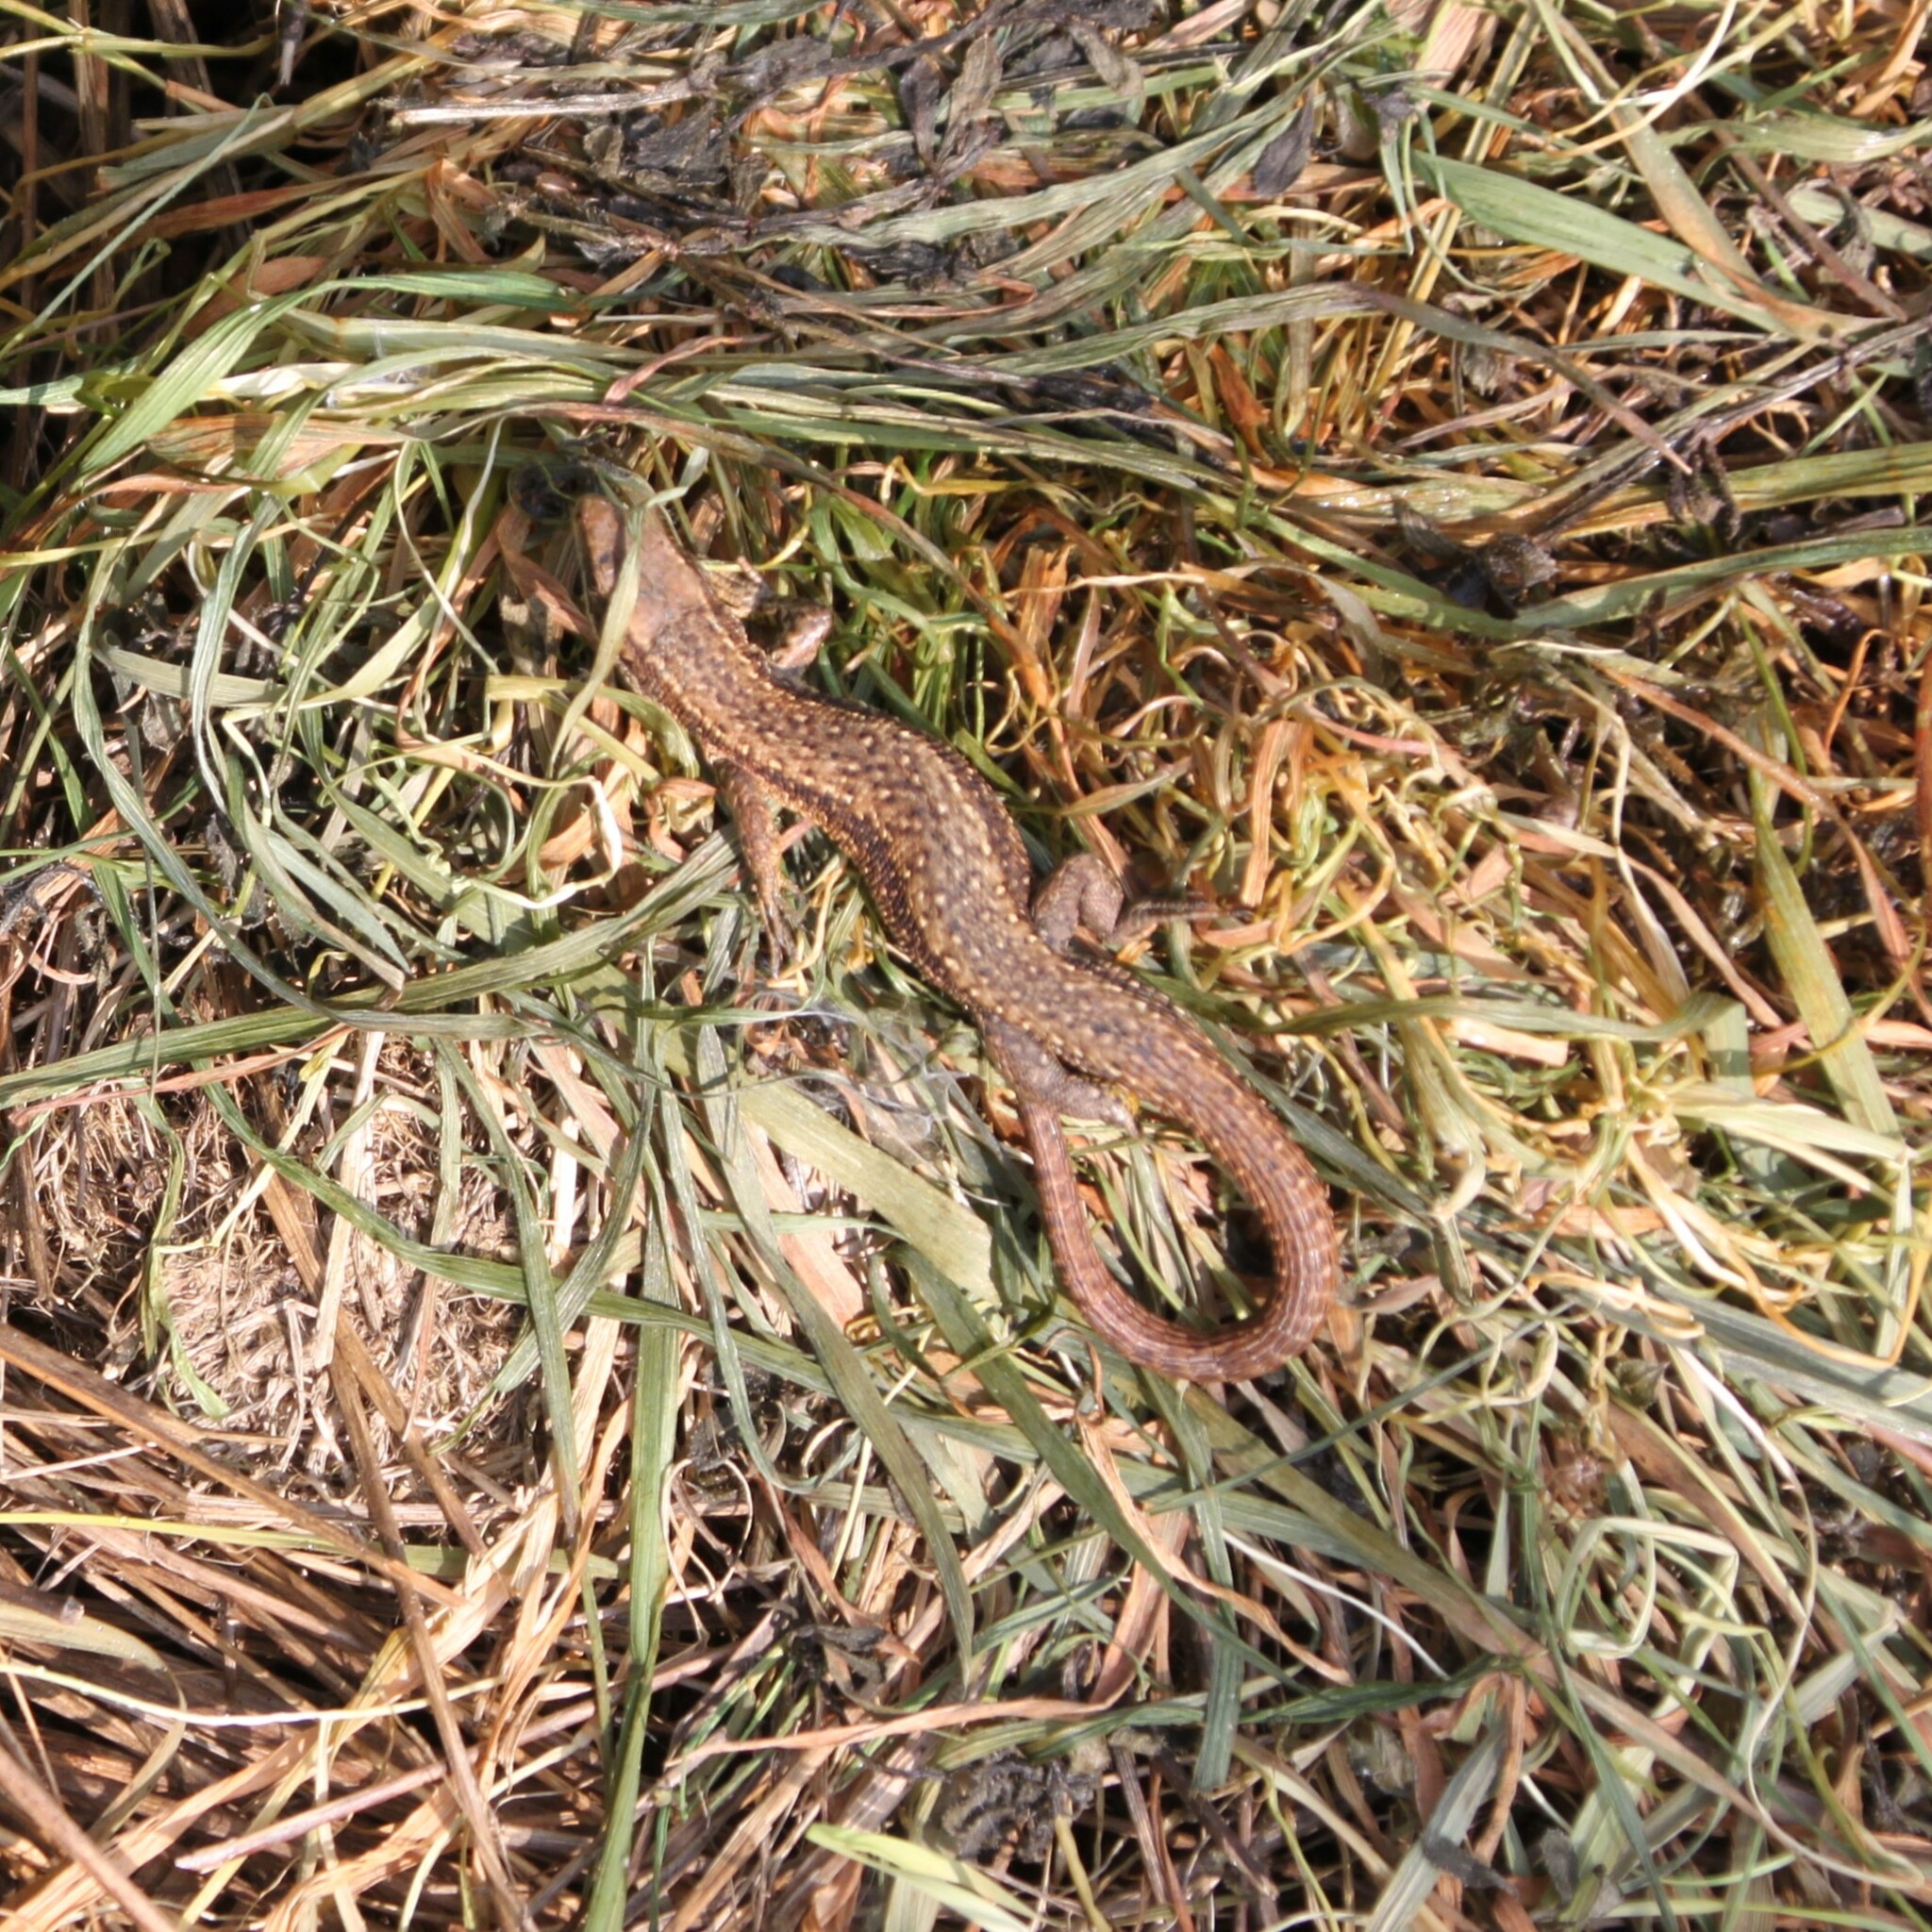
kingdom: Animalia
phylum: Chordata
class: Squamata
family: Lacertidae
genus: Zootoca
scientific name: Zootoca vivipara
